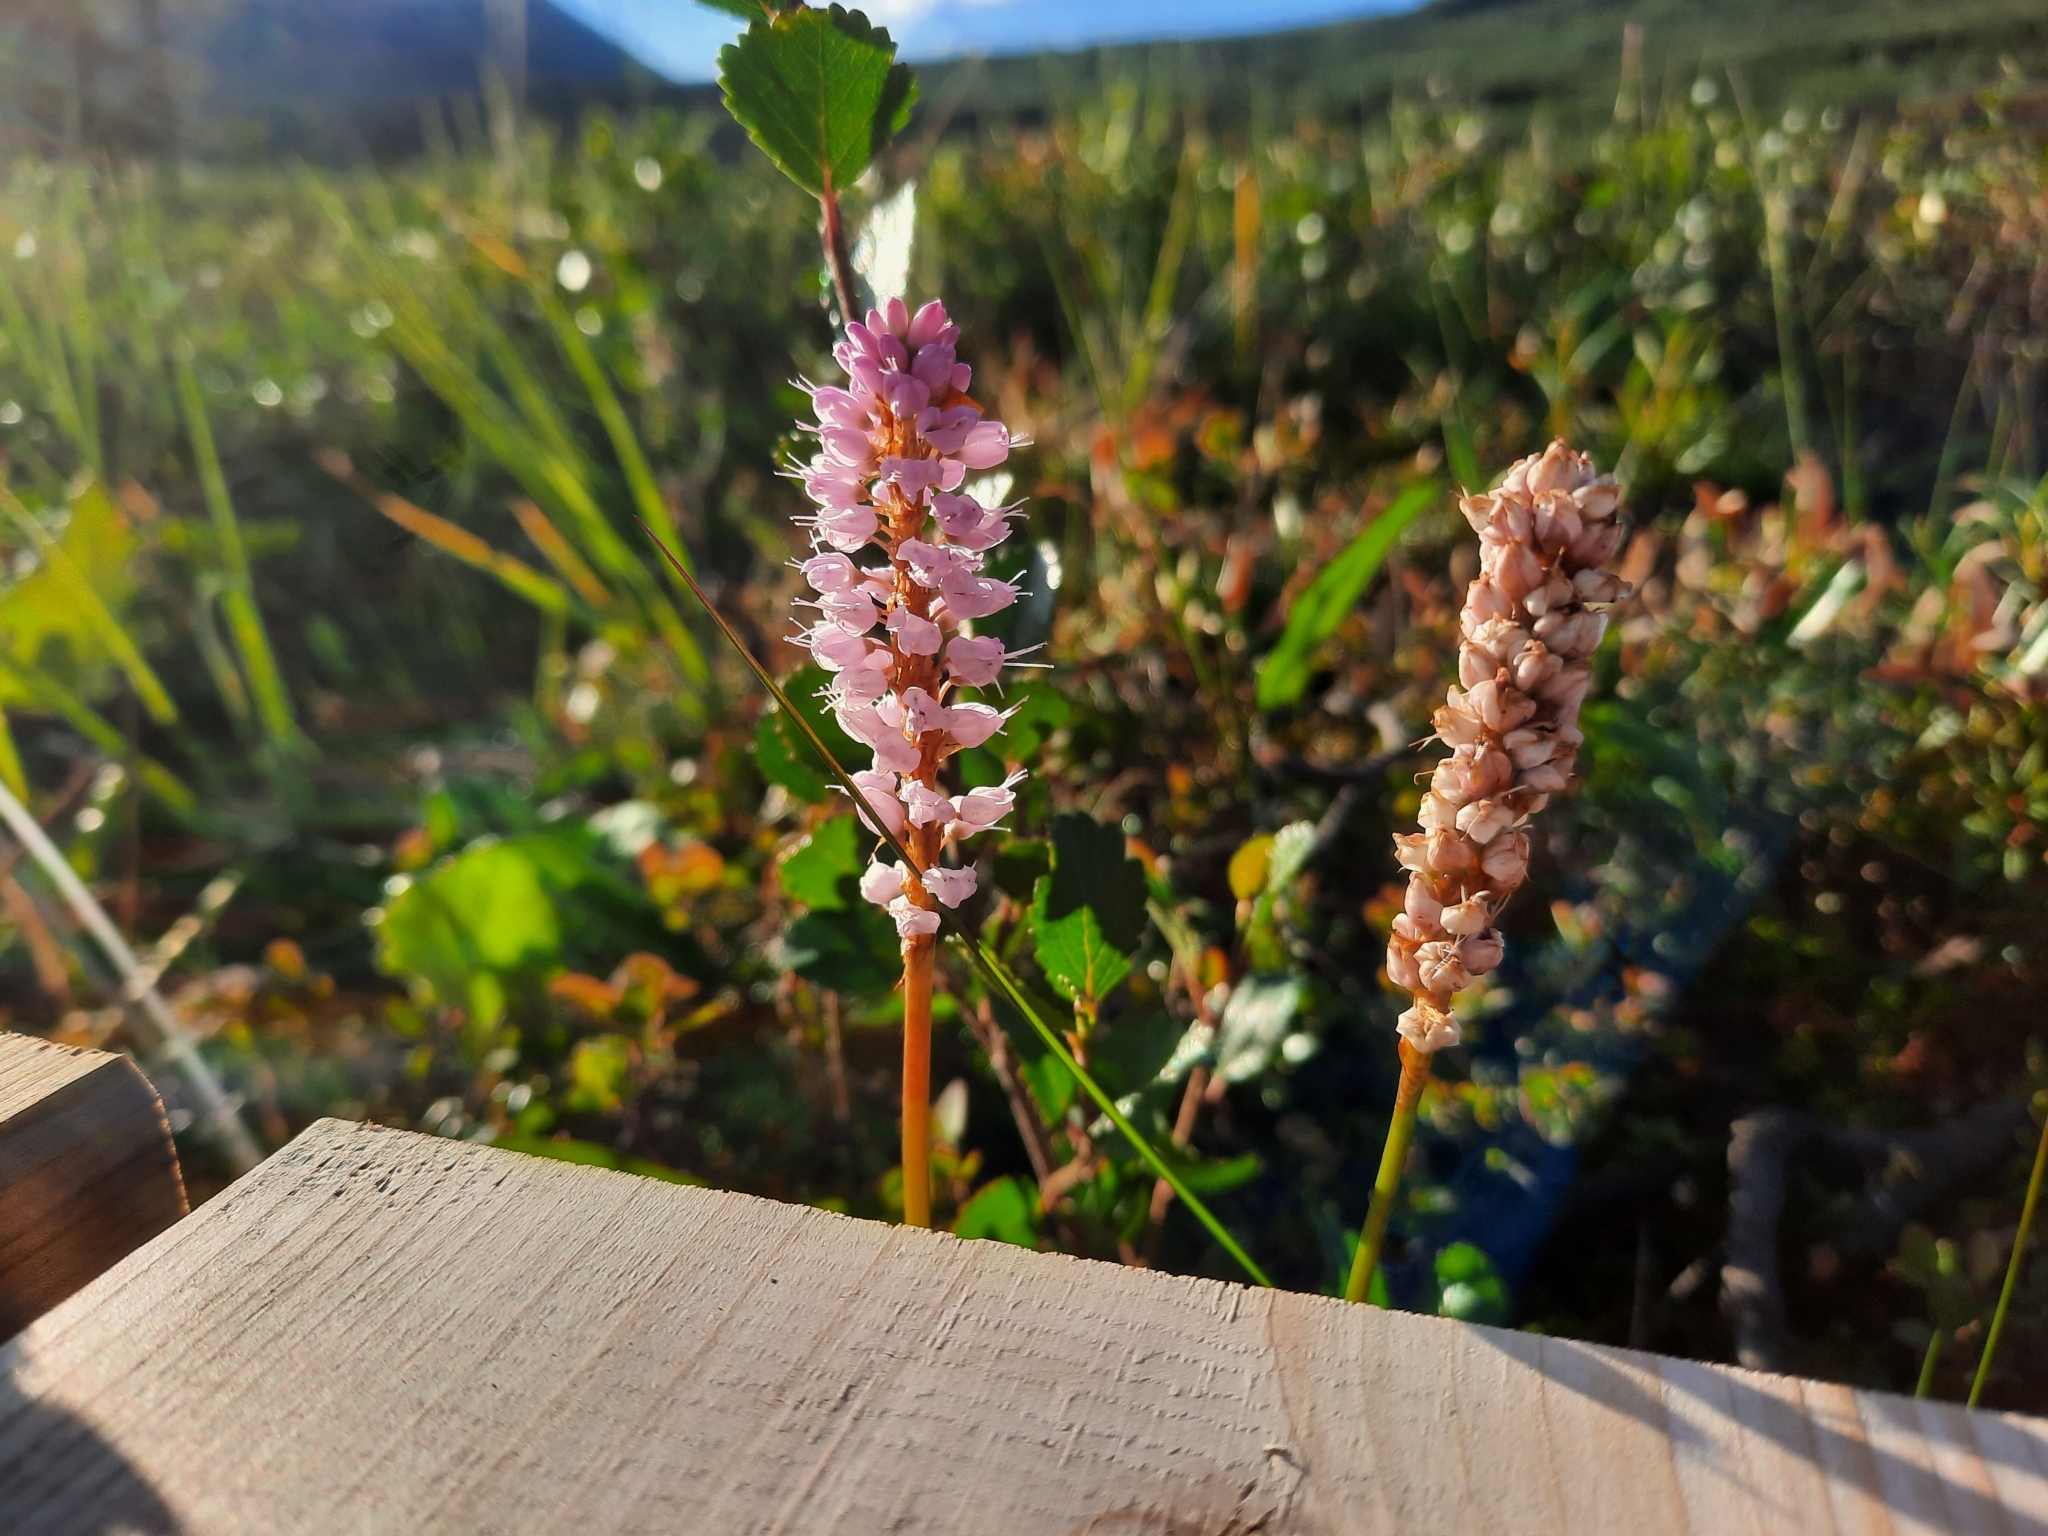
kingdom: Plantae
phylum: Tracheophyta
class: Magnoliopsida
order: Caryophyllales
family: Polygonaceae
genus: Bistorta
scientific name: Bistorta plumosa
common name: Meadow bistort
